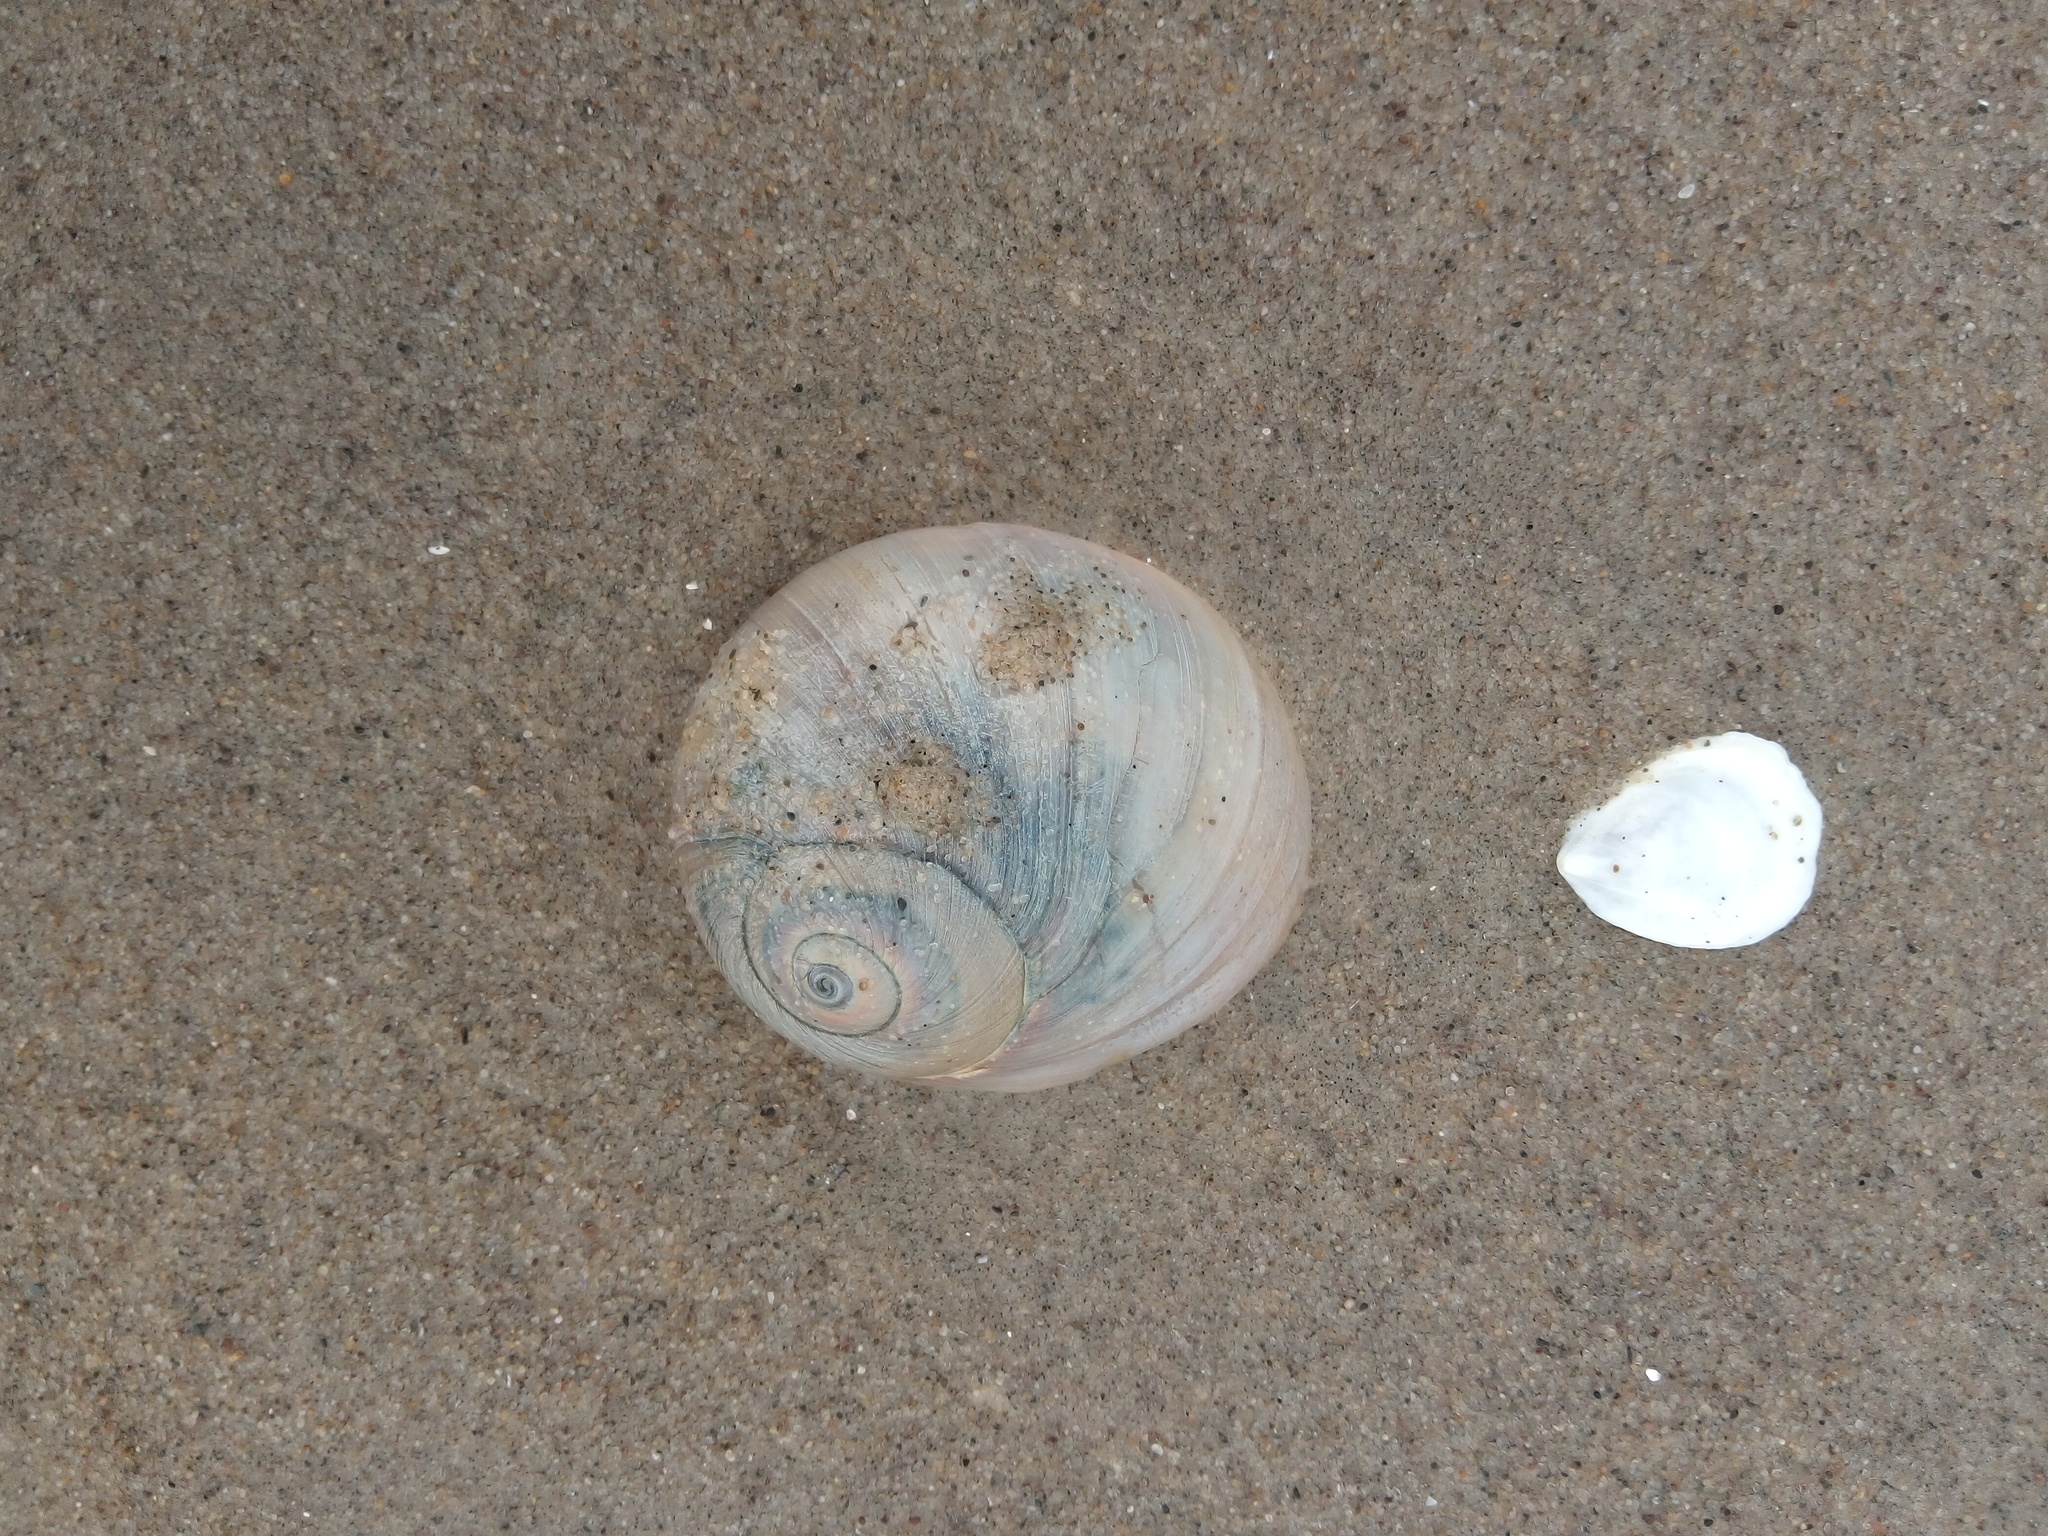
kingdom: Animalia
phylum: Mollusca
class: Gastropoda
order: Littorinimorpha
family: Naticidae
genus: Neverita
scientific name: Neverita duplicata
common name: Lobed moonsnail
